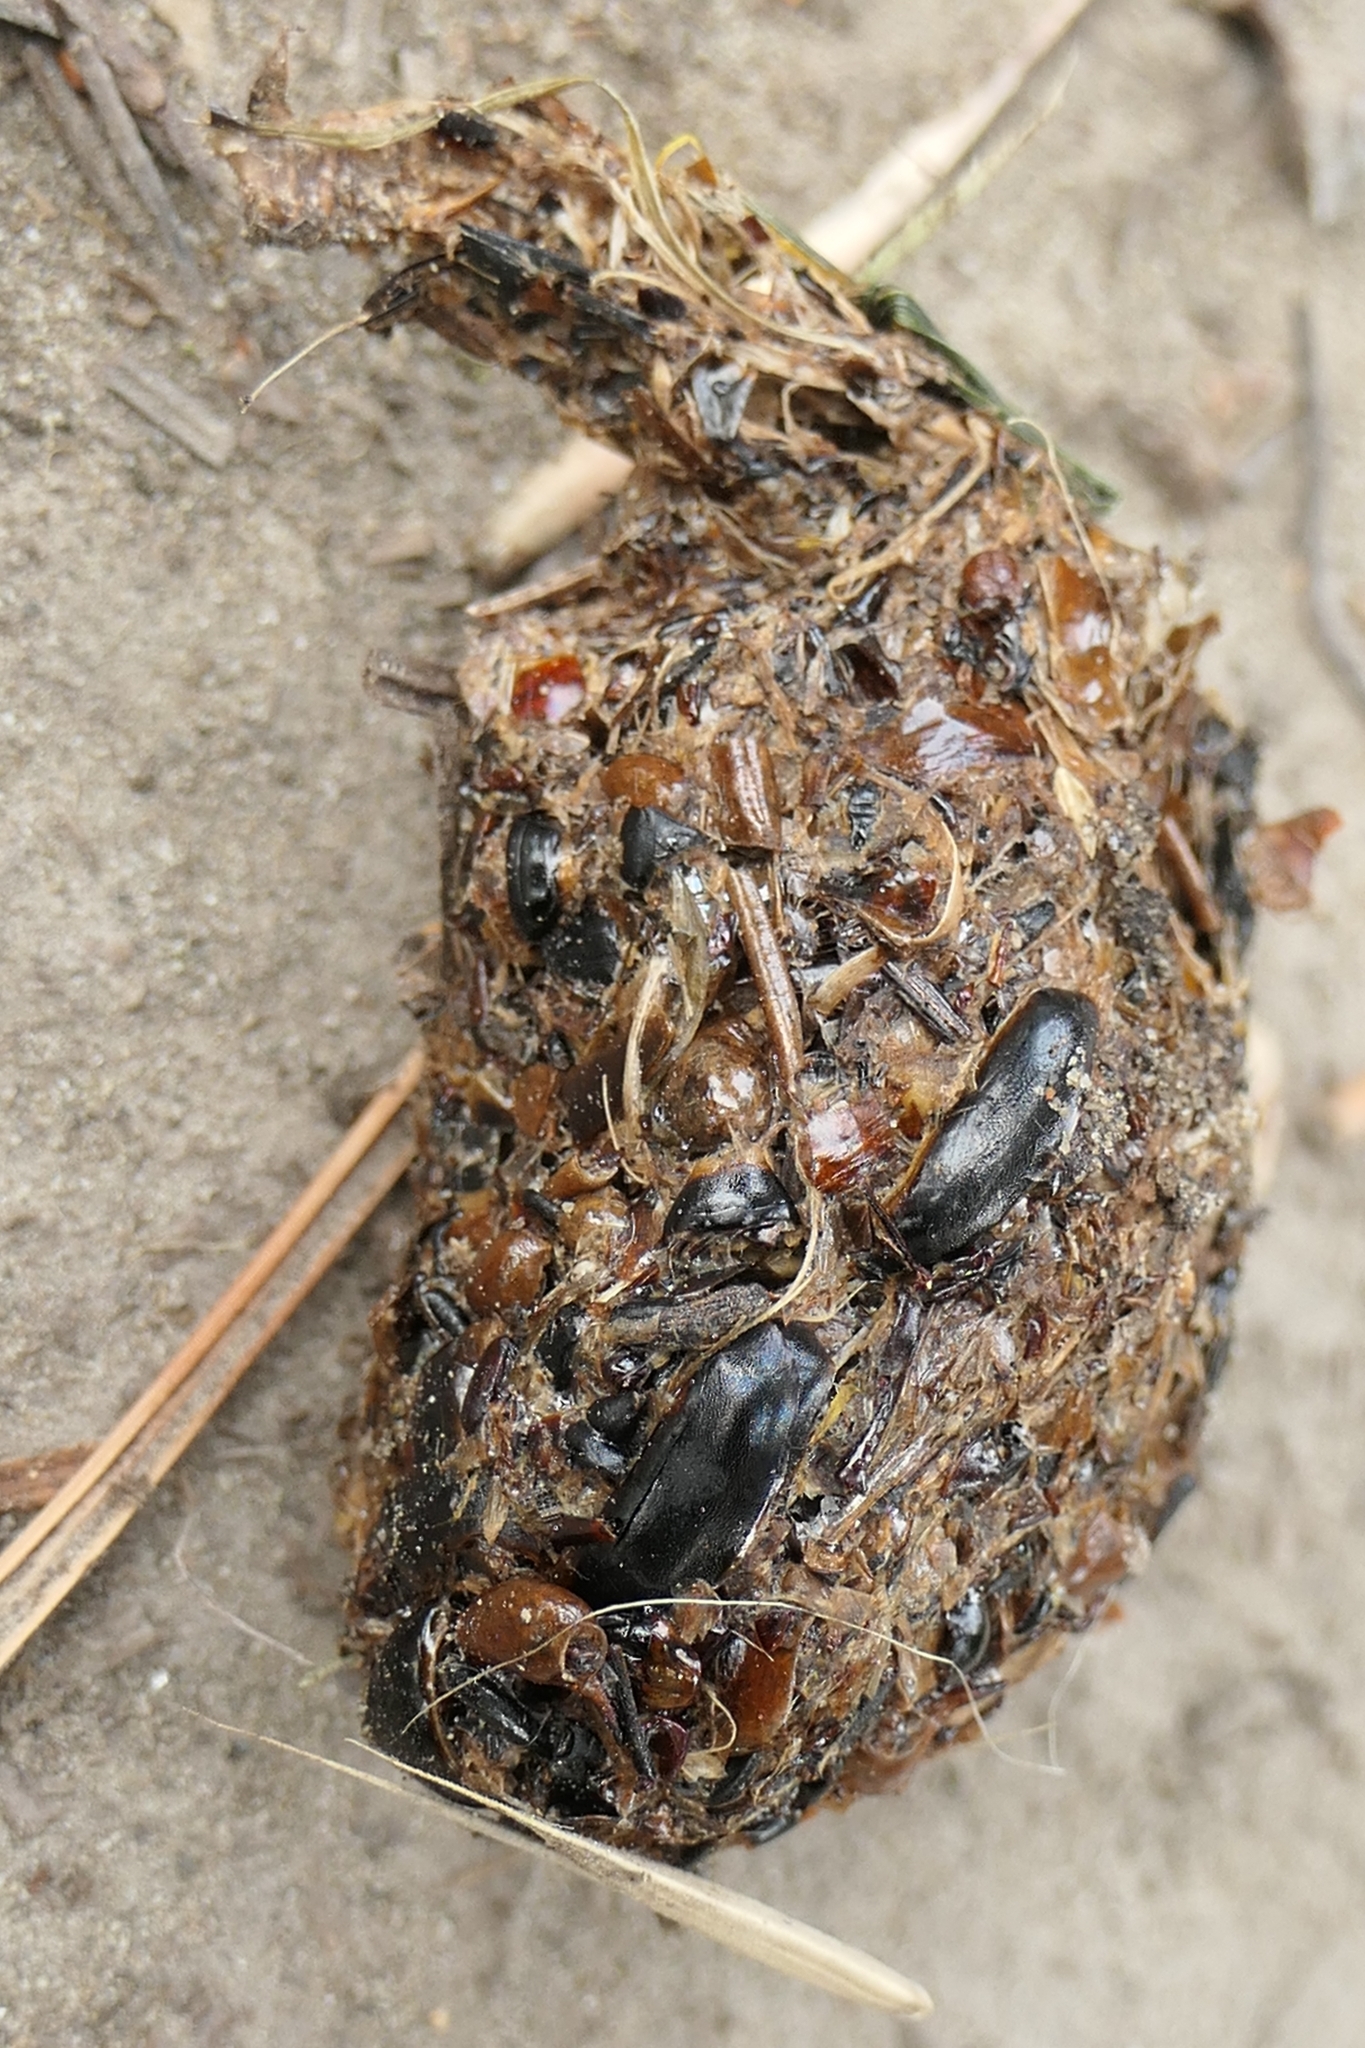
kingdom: Animalia
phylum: Chordata
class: Aves
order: Strigiformes
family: Strigidae
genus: Athene
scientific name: Athene noctua
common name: Little owl
